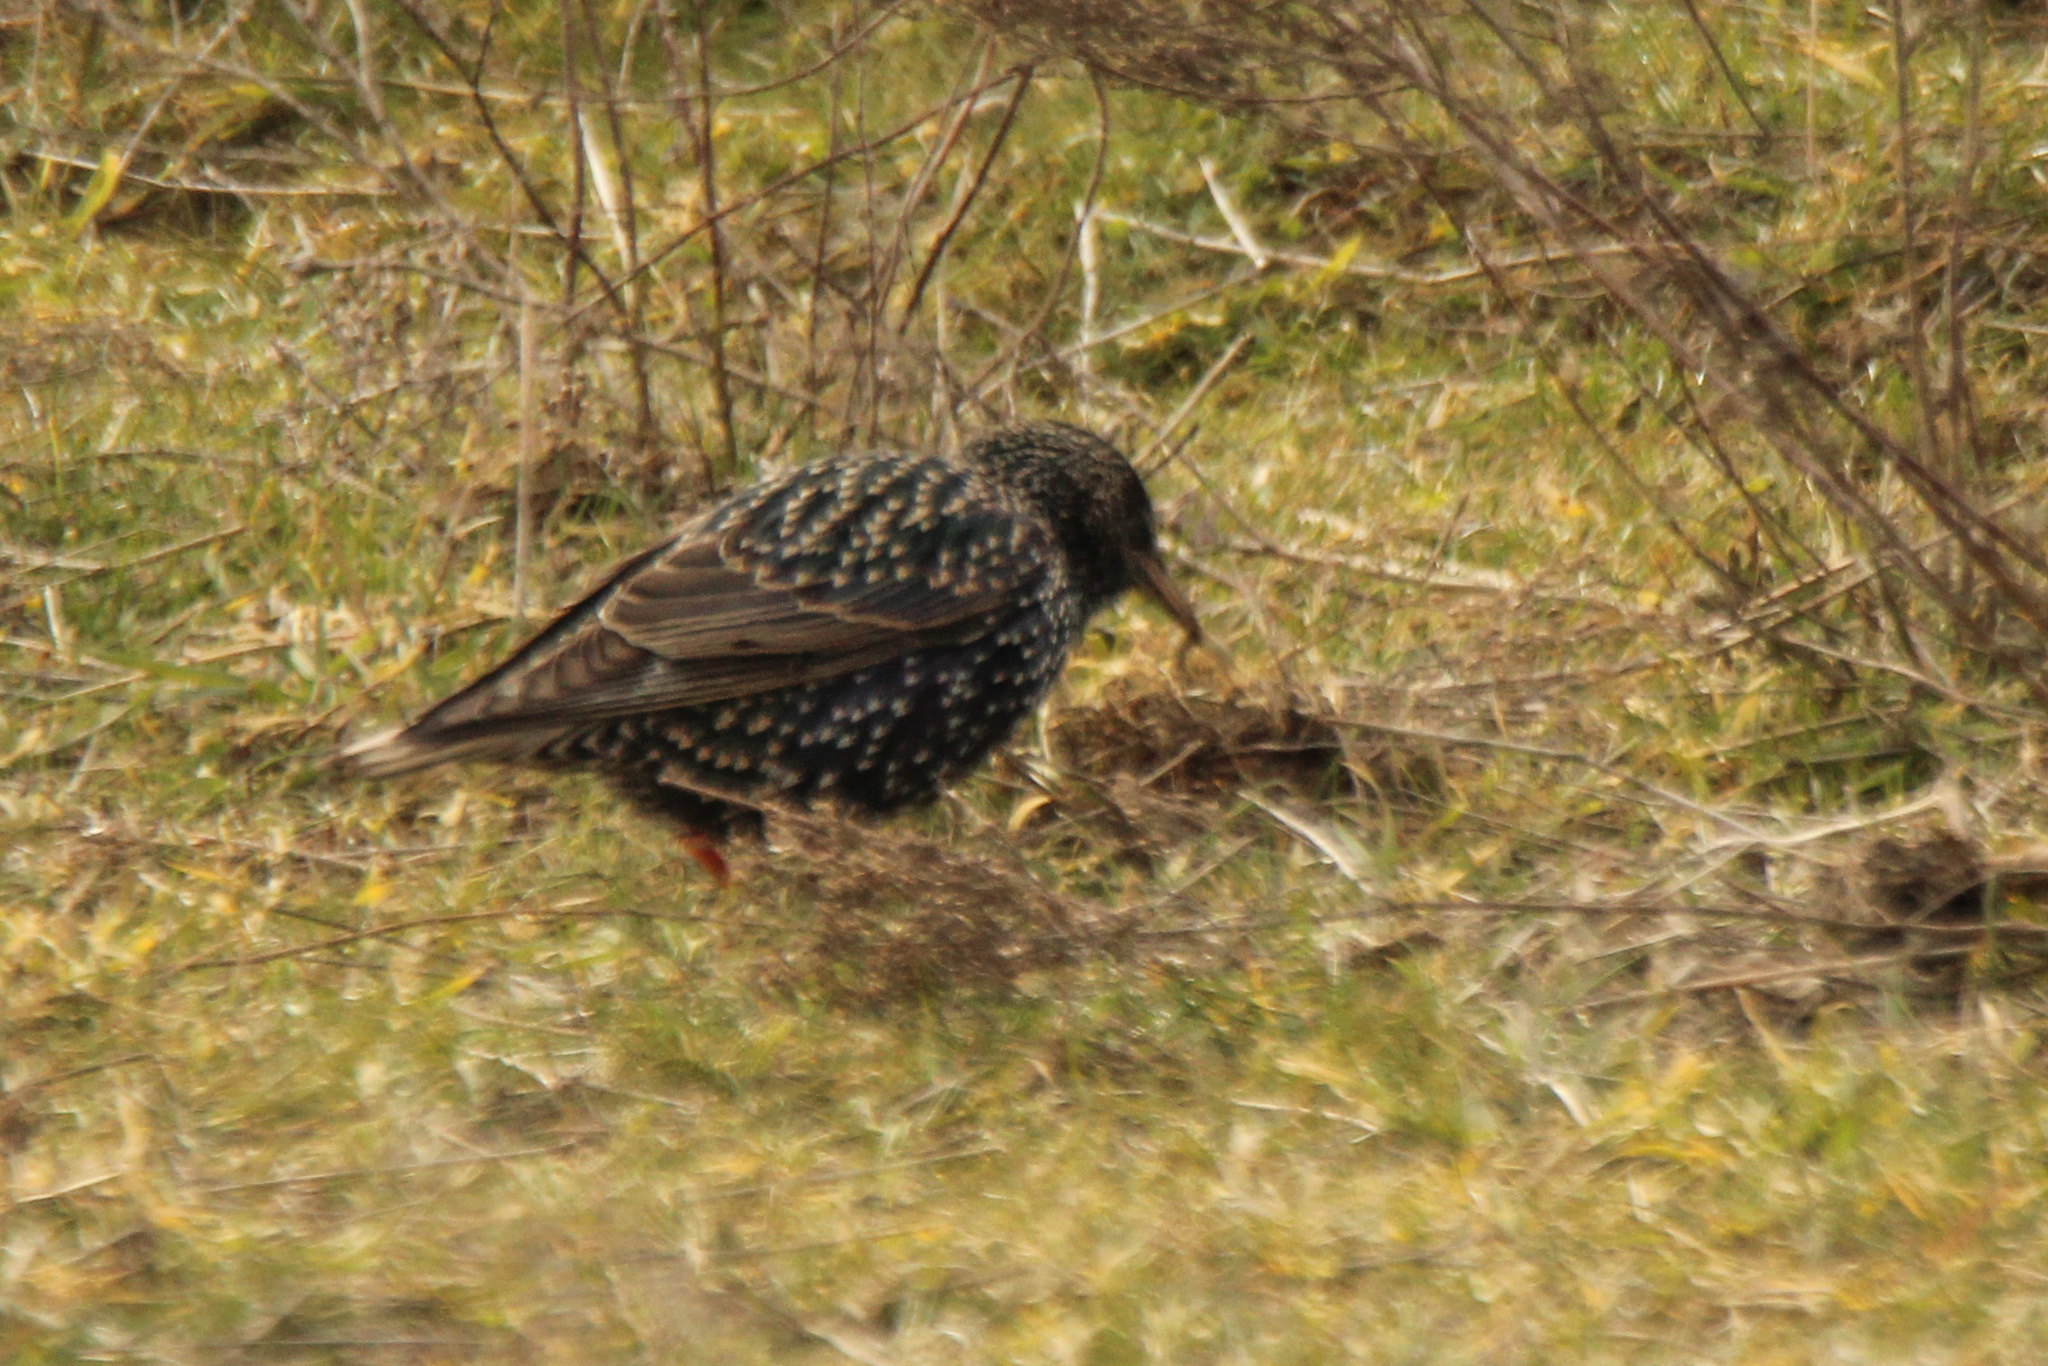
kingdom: Animalia
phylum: Chordata
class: Aves
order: Passeriformes
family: Sturnidae
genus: Sturnus
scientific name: Sturnus vulgaris
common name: Common starling
